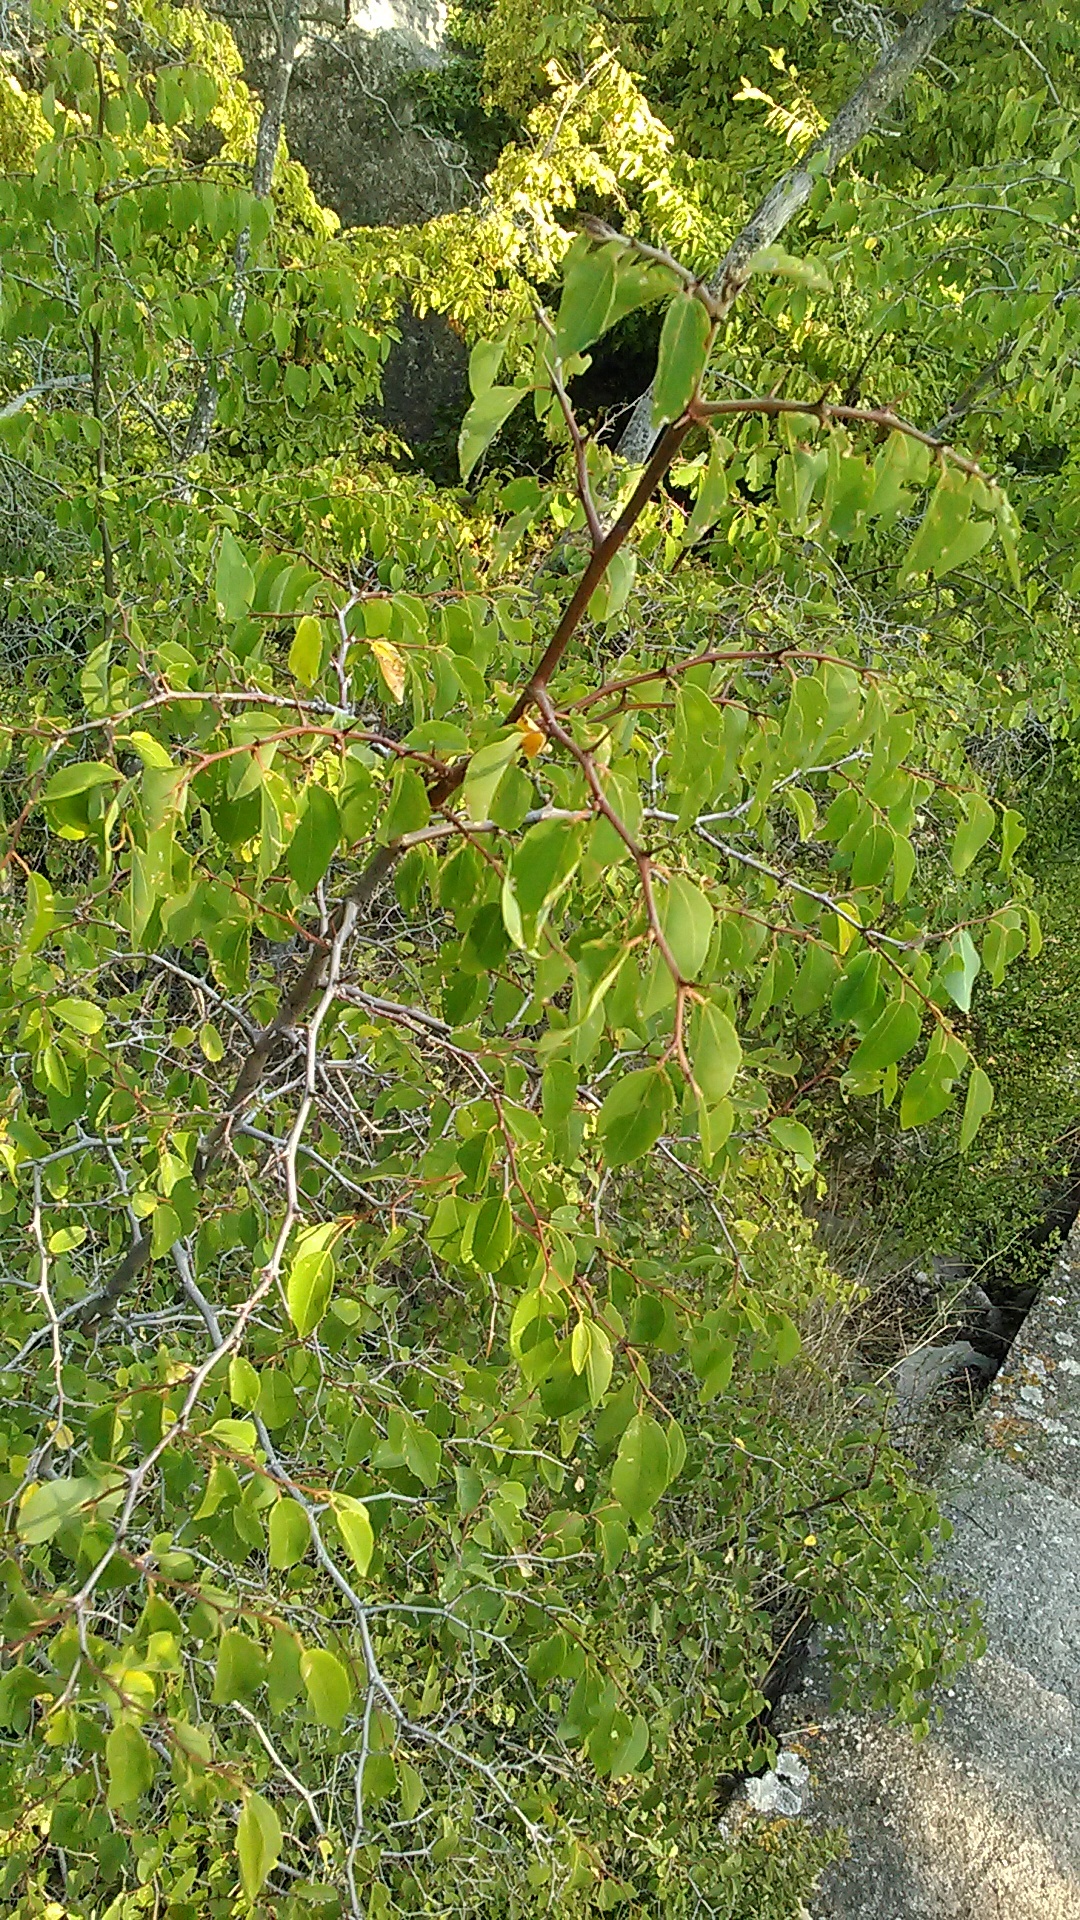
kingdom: Plantae
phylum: Tracheophyta
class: Magnoliopsida
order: Rosales
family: Rhamnaceae
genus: Paliurus
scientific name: Paliurus spina-christi
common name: Jeruselem thorn
